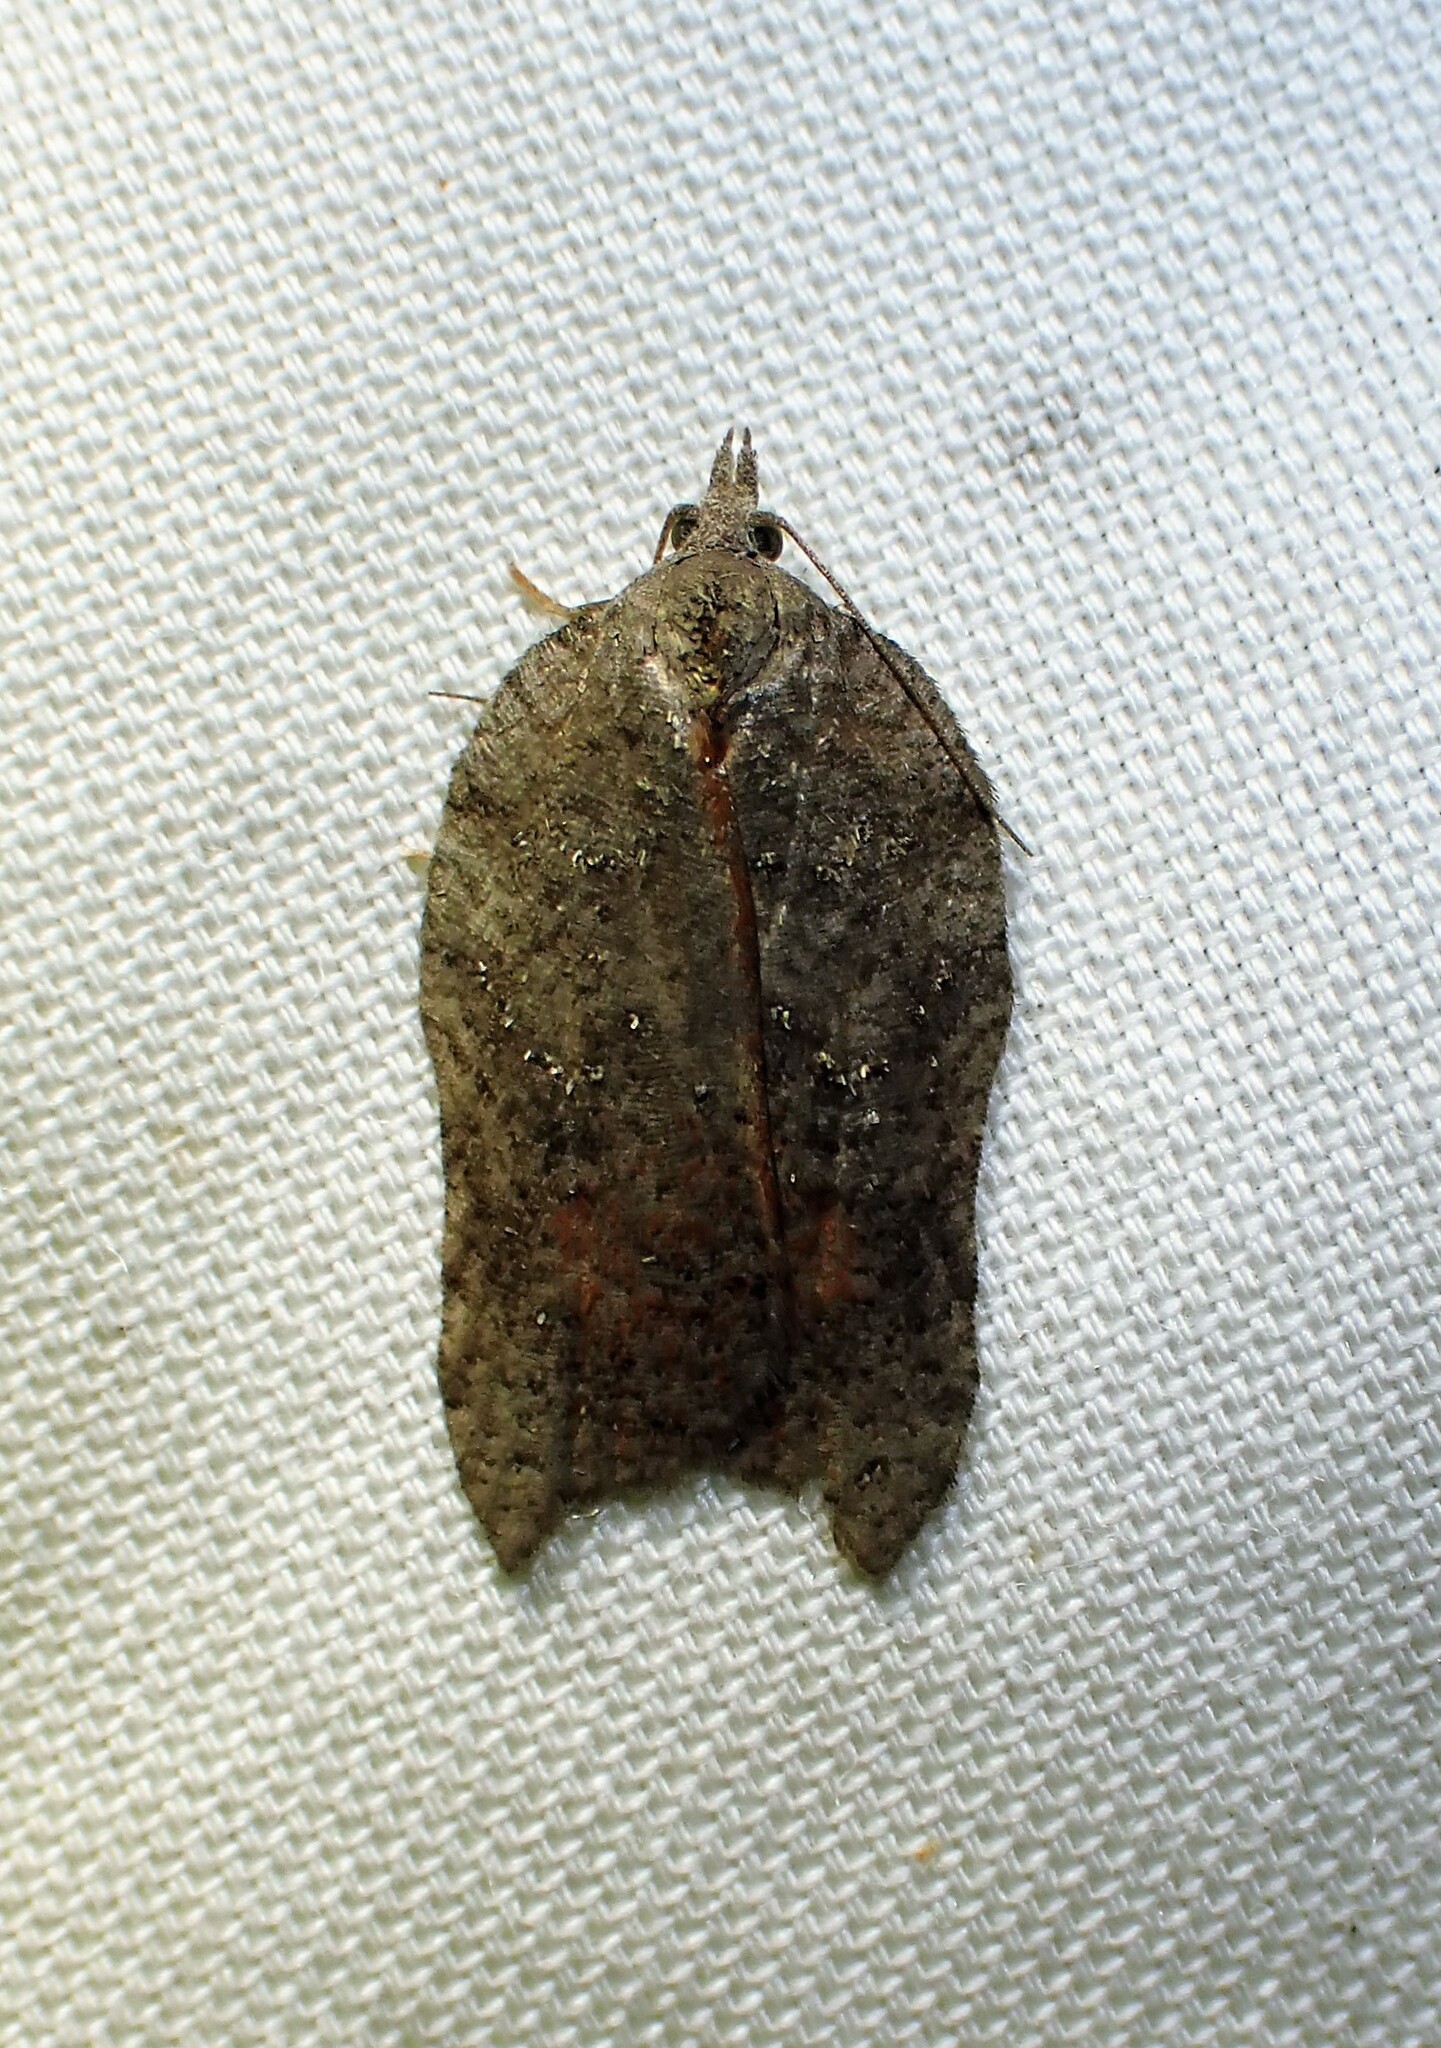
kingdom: Animalia
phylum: Arthropoda
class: Insecta
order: Lepidoptera
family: Tortricidae
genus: Acleris
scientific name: Acleris effractana
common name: Hook-winged tortrix moth
